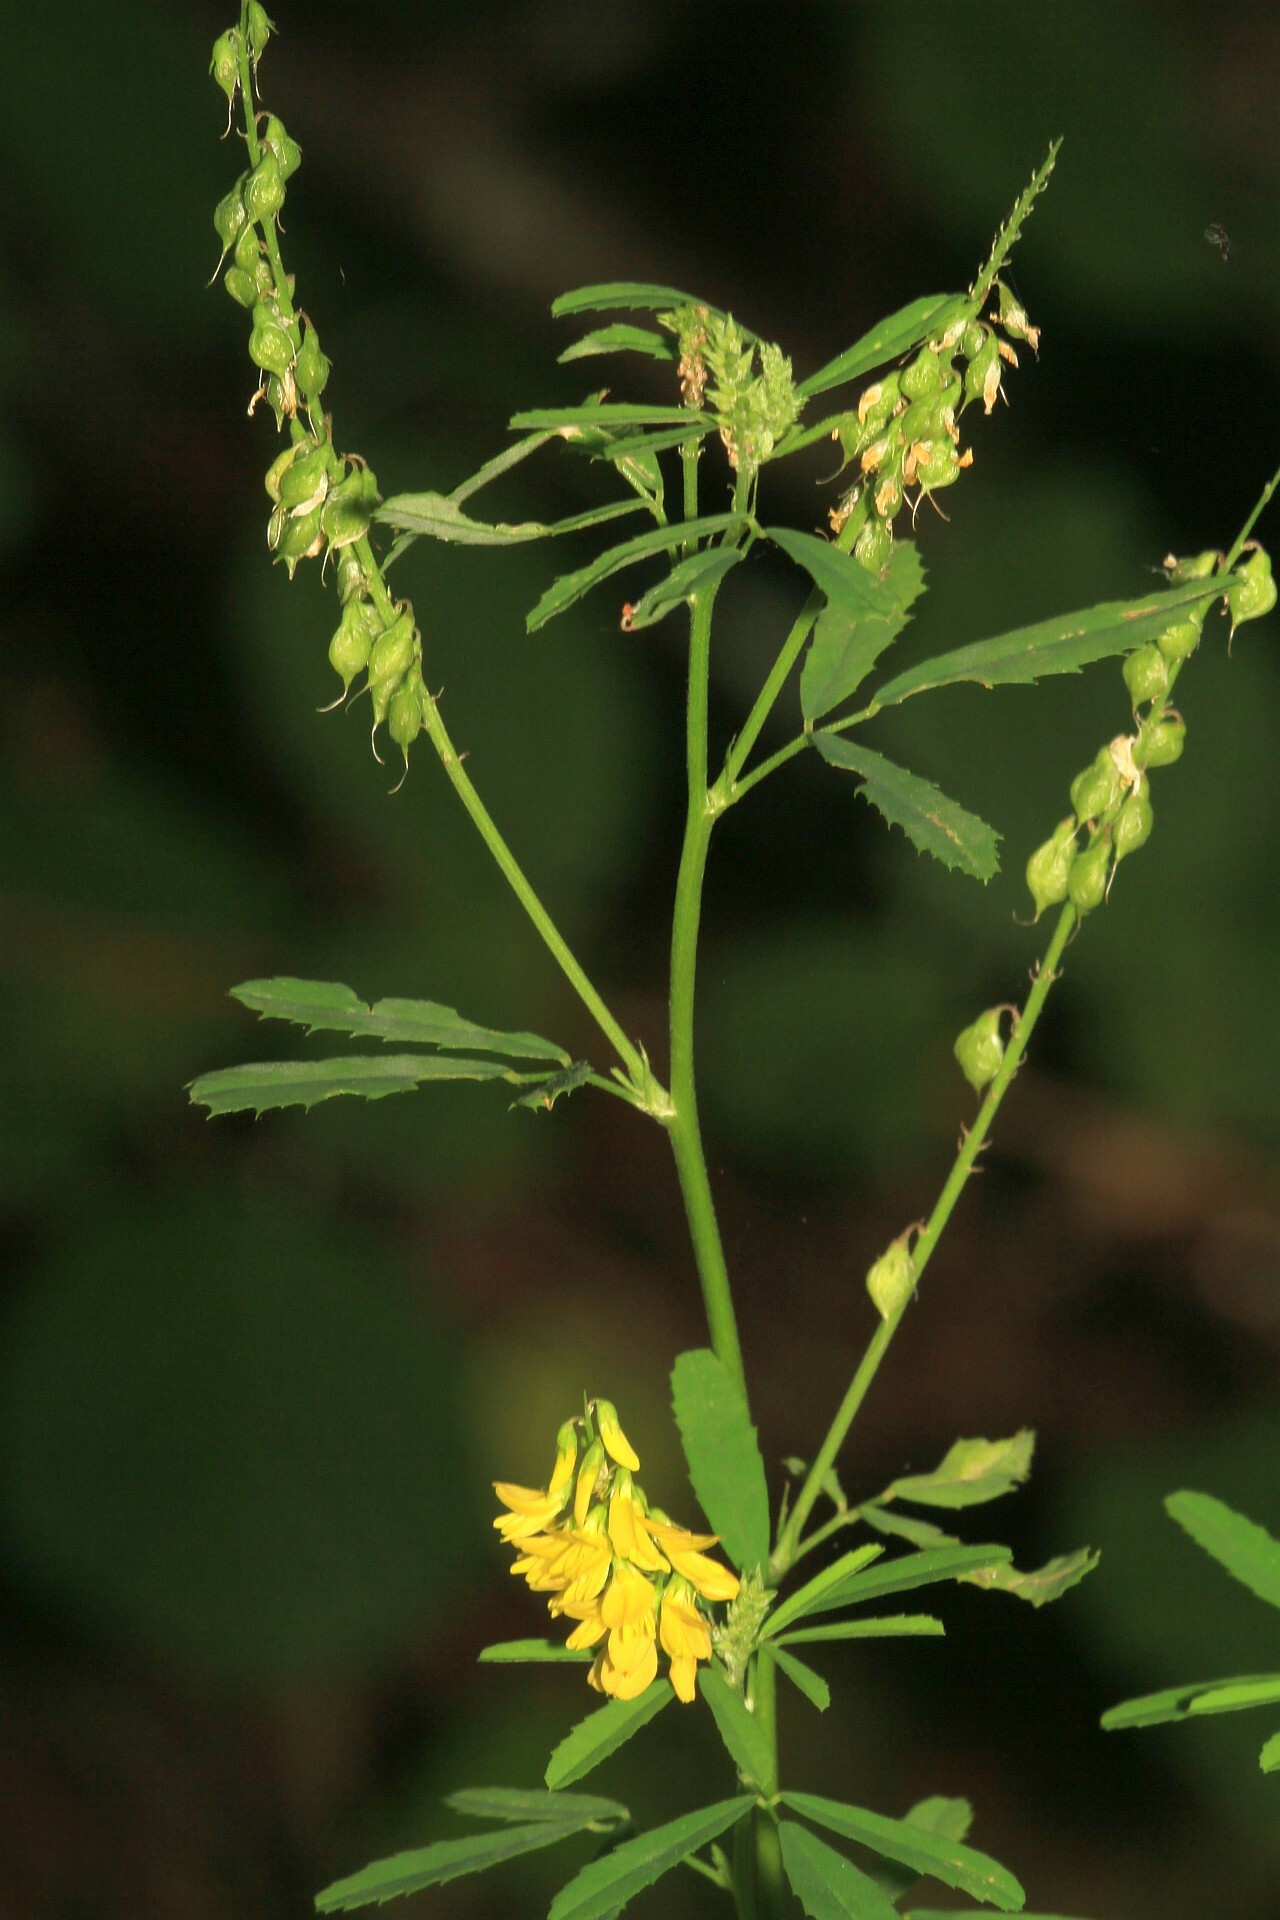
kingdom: Plantae
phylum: Tracheophyta
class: Magnoliopsida
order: Fabales
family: Fabaceae
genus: Melilotus
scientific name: Melilotus officinalis
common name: Sweetclover
